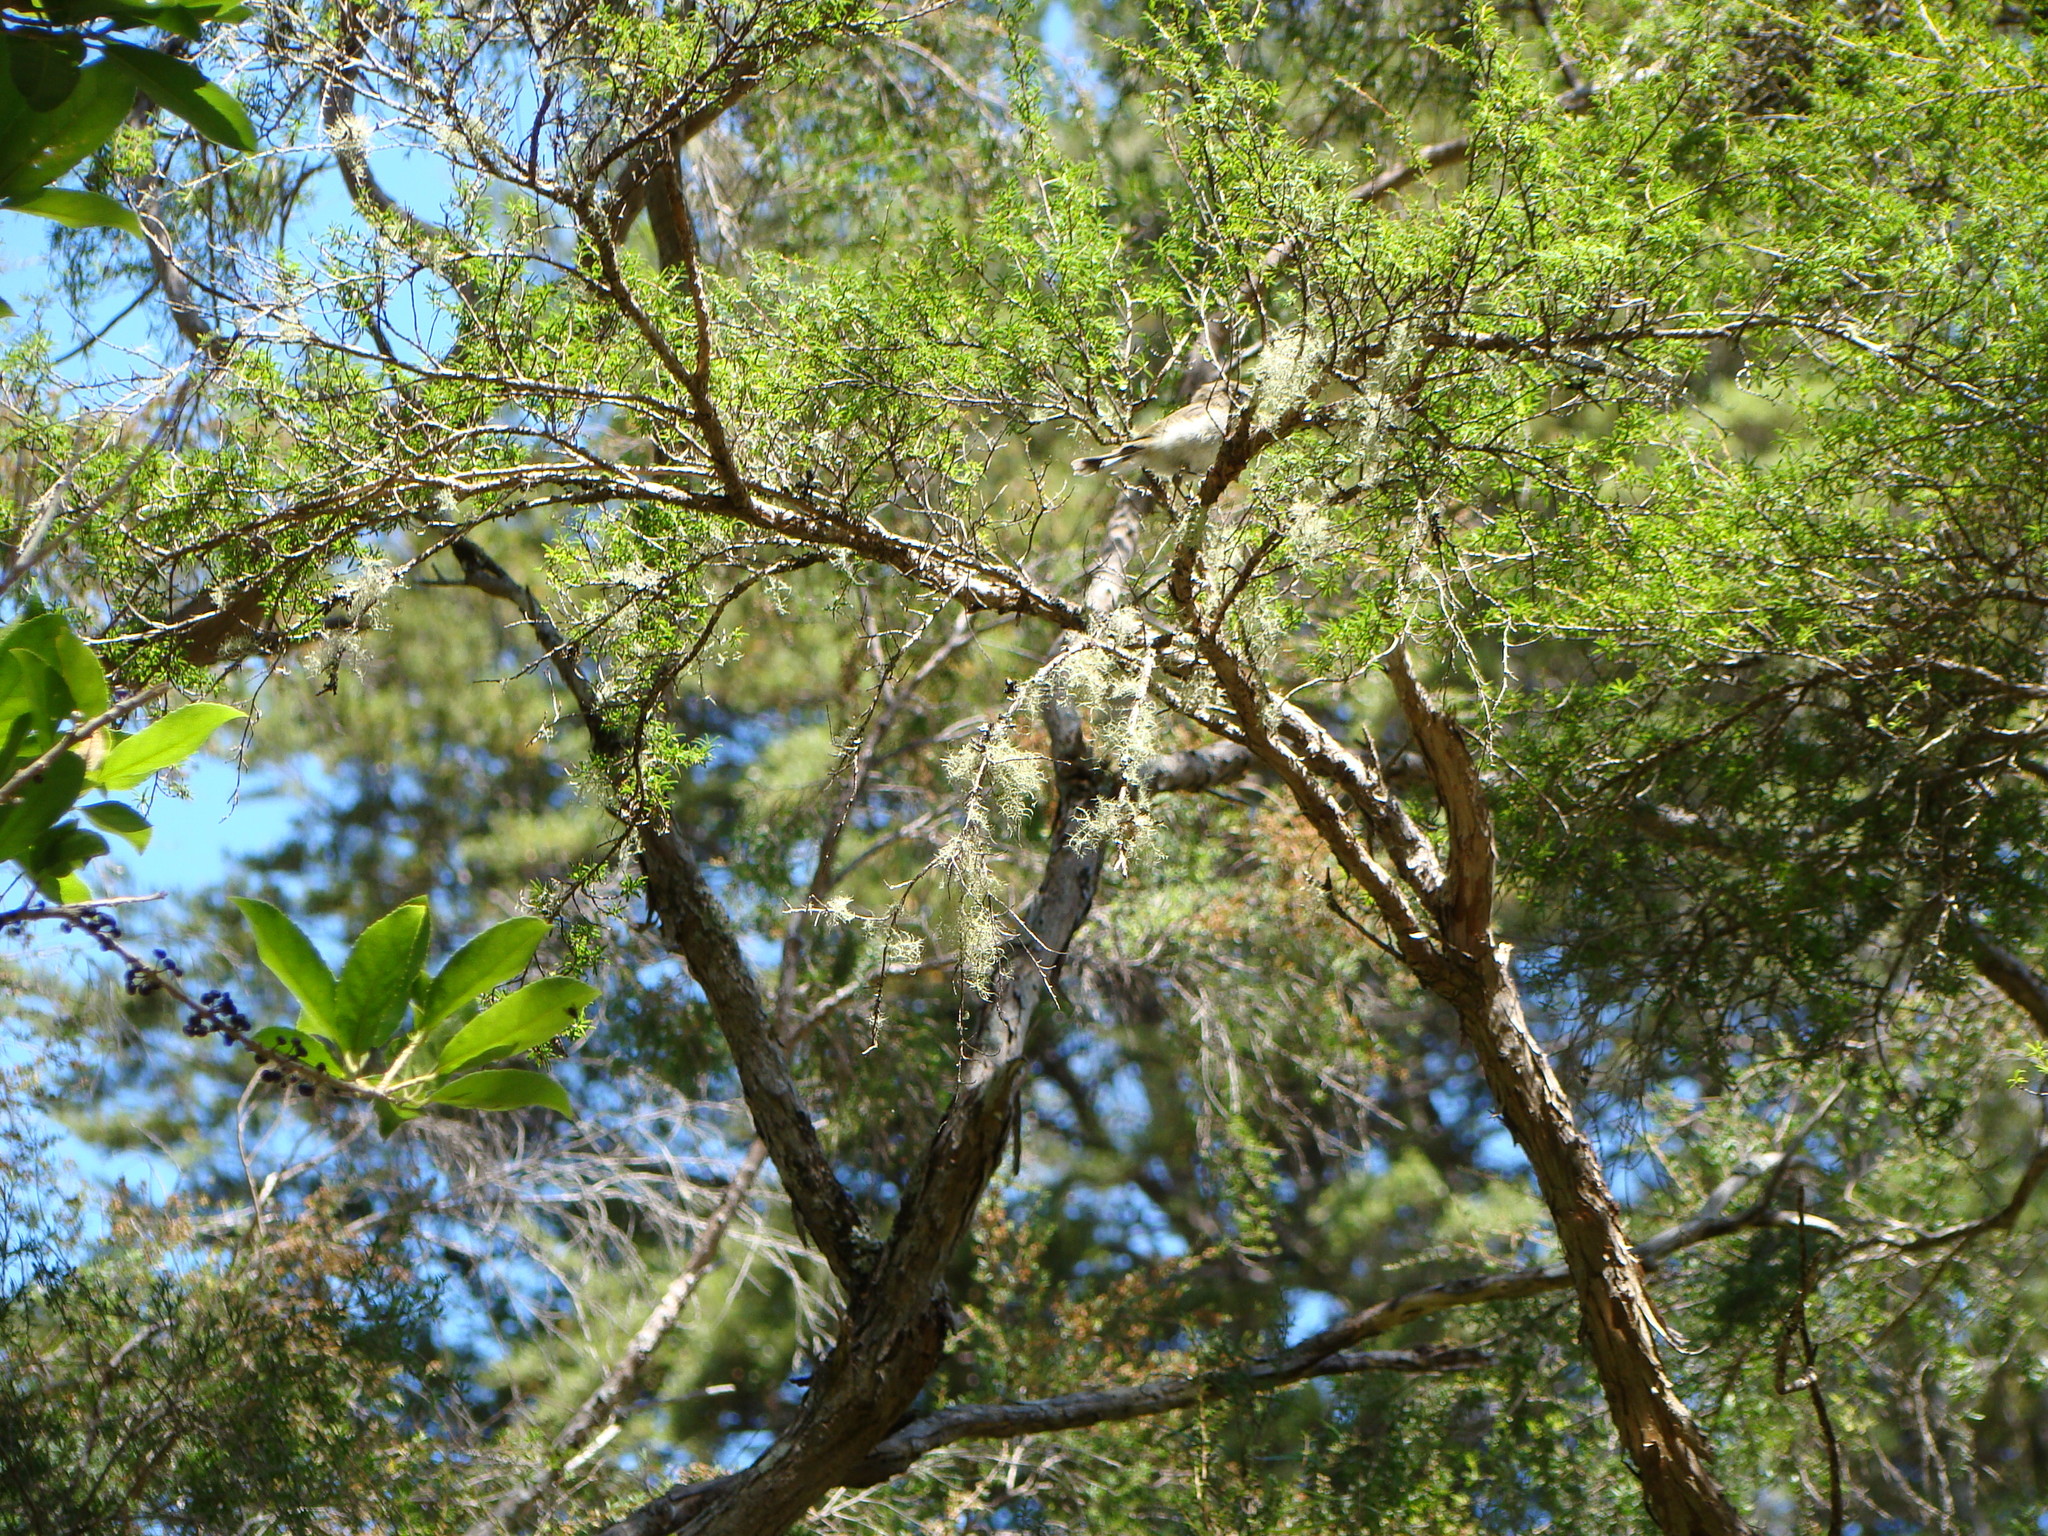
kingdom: Animalia
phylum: Chordata
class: Aves
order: Passeriformes
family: Acanthizidae
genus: Gerygone
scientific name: Gerygone igata
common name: Grey gerygone
